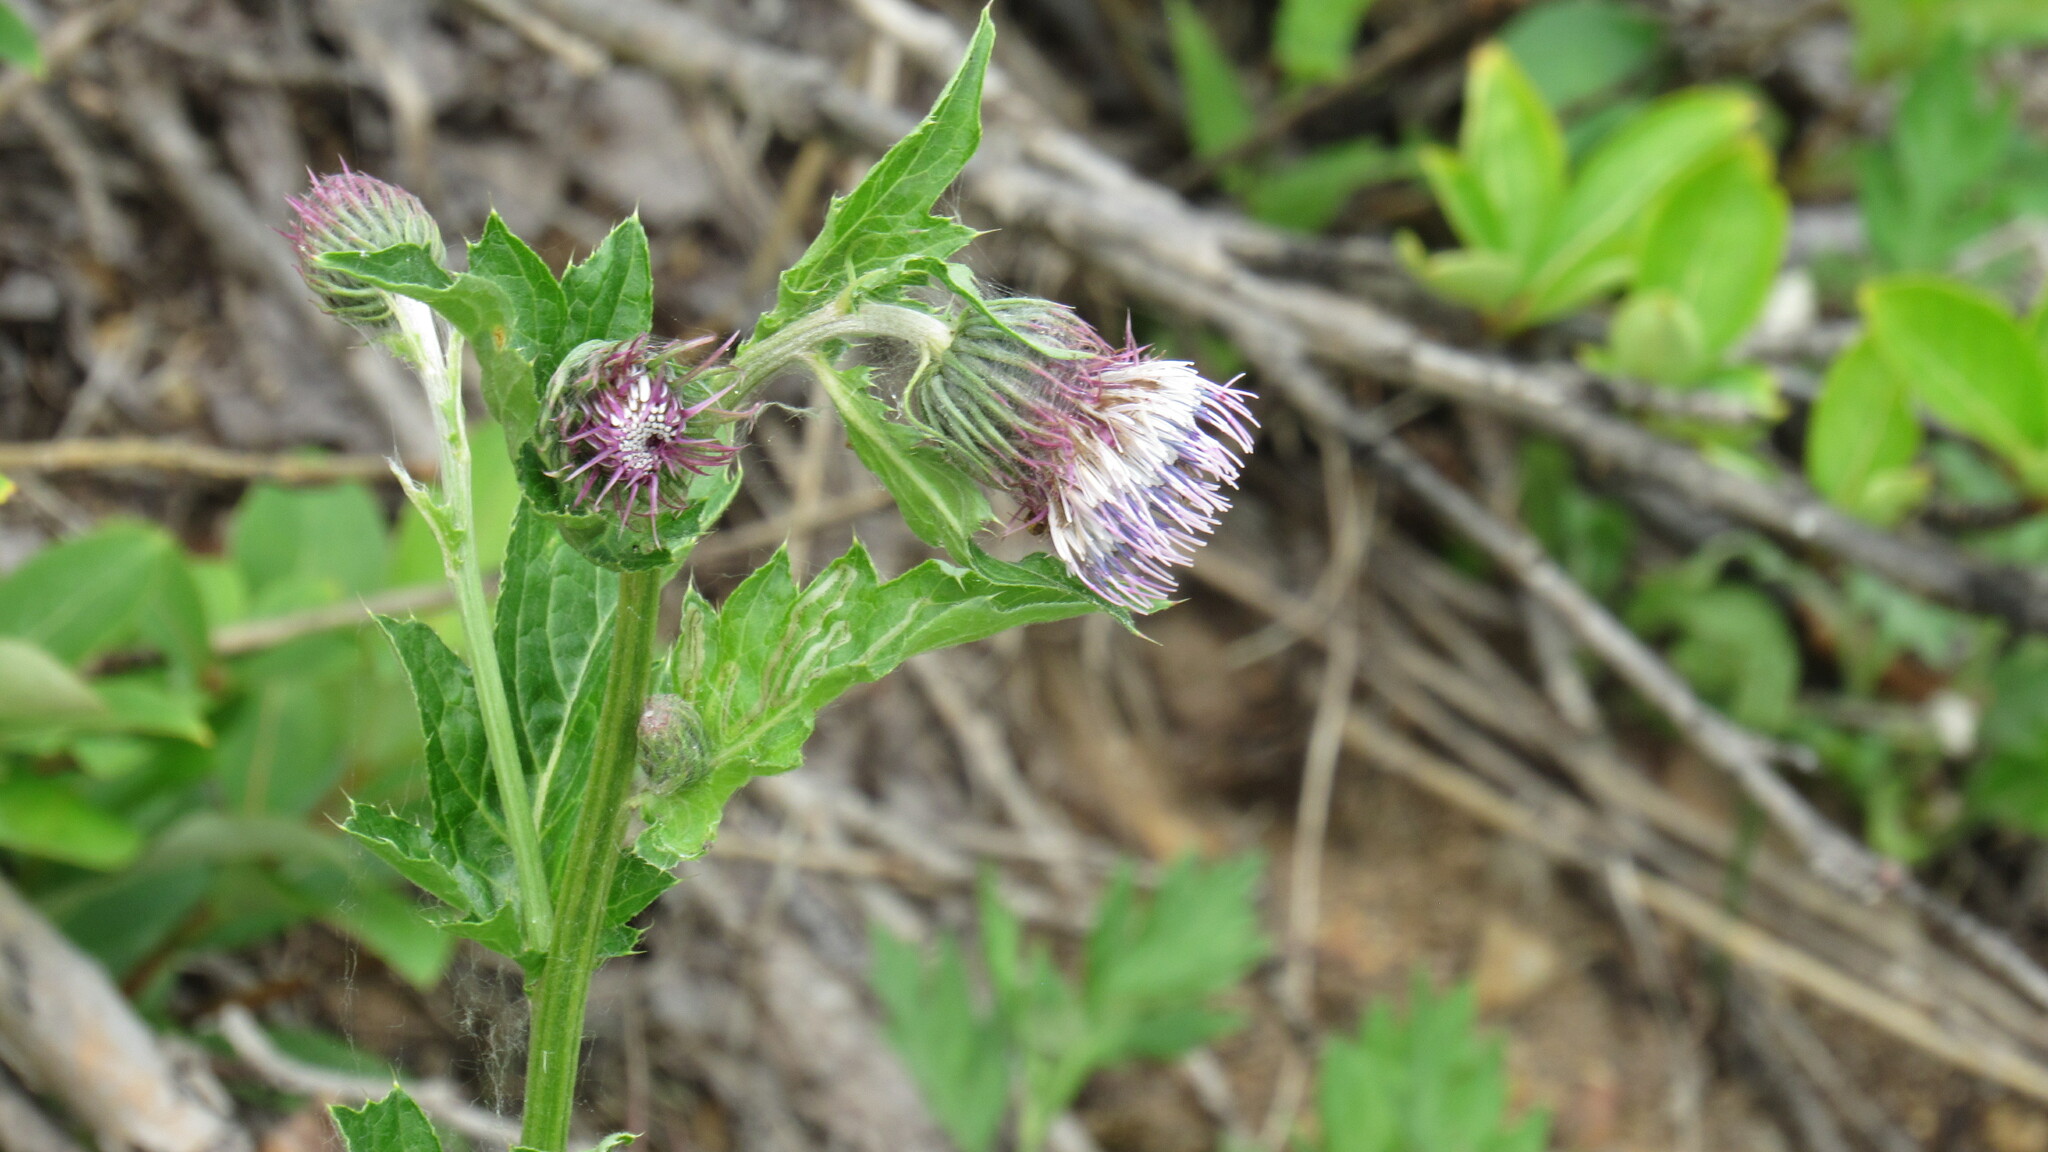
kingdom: Plantae
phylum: Tracheophyta
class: Magnoliopsida
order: Asterales
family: Asteraceae
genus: Cirsium
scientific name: Cirsium kamtschaticum
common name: Kamchatka thistle
